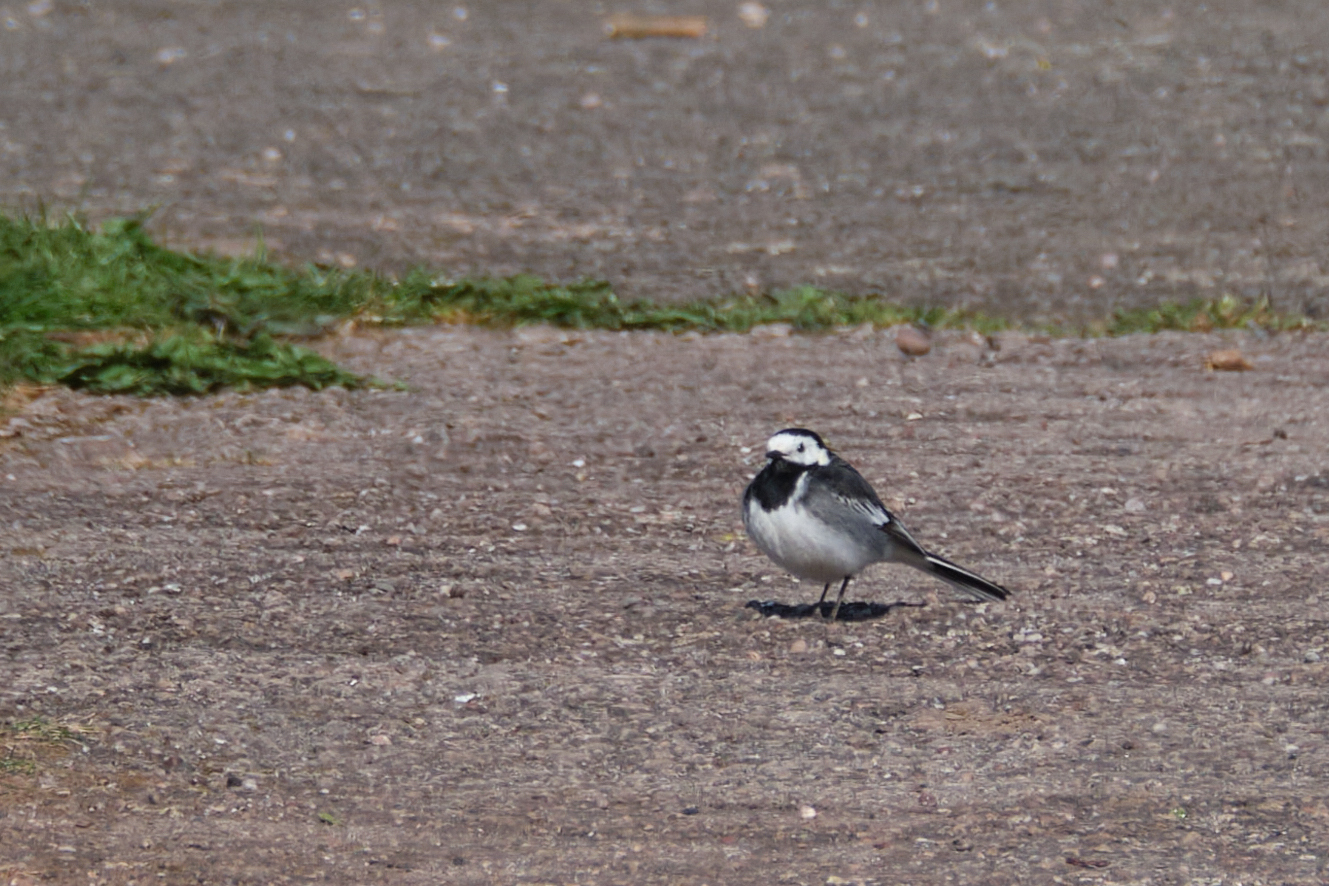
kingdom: Animalia
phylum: Chordata
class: Aves
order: Passeriformes
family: Motacillidae
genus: Motacilla
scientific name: Motacilla alba
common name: White wagtail
